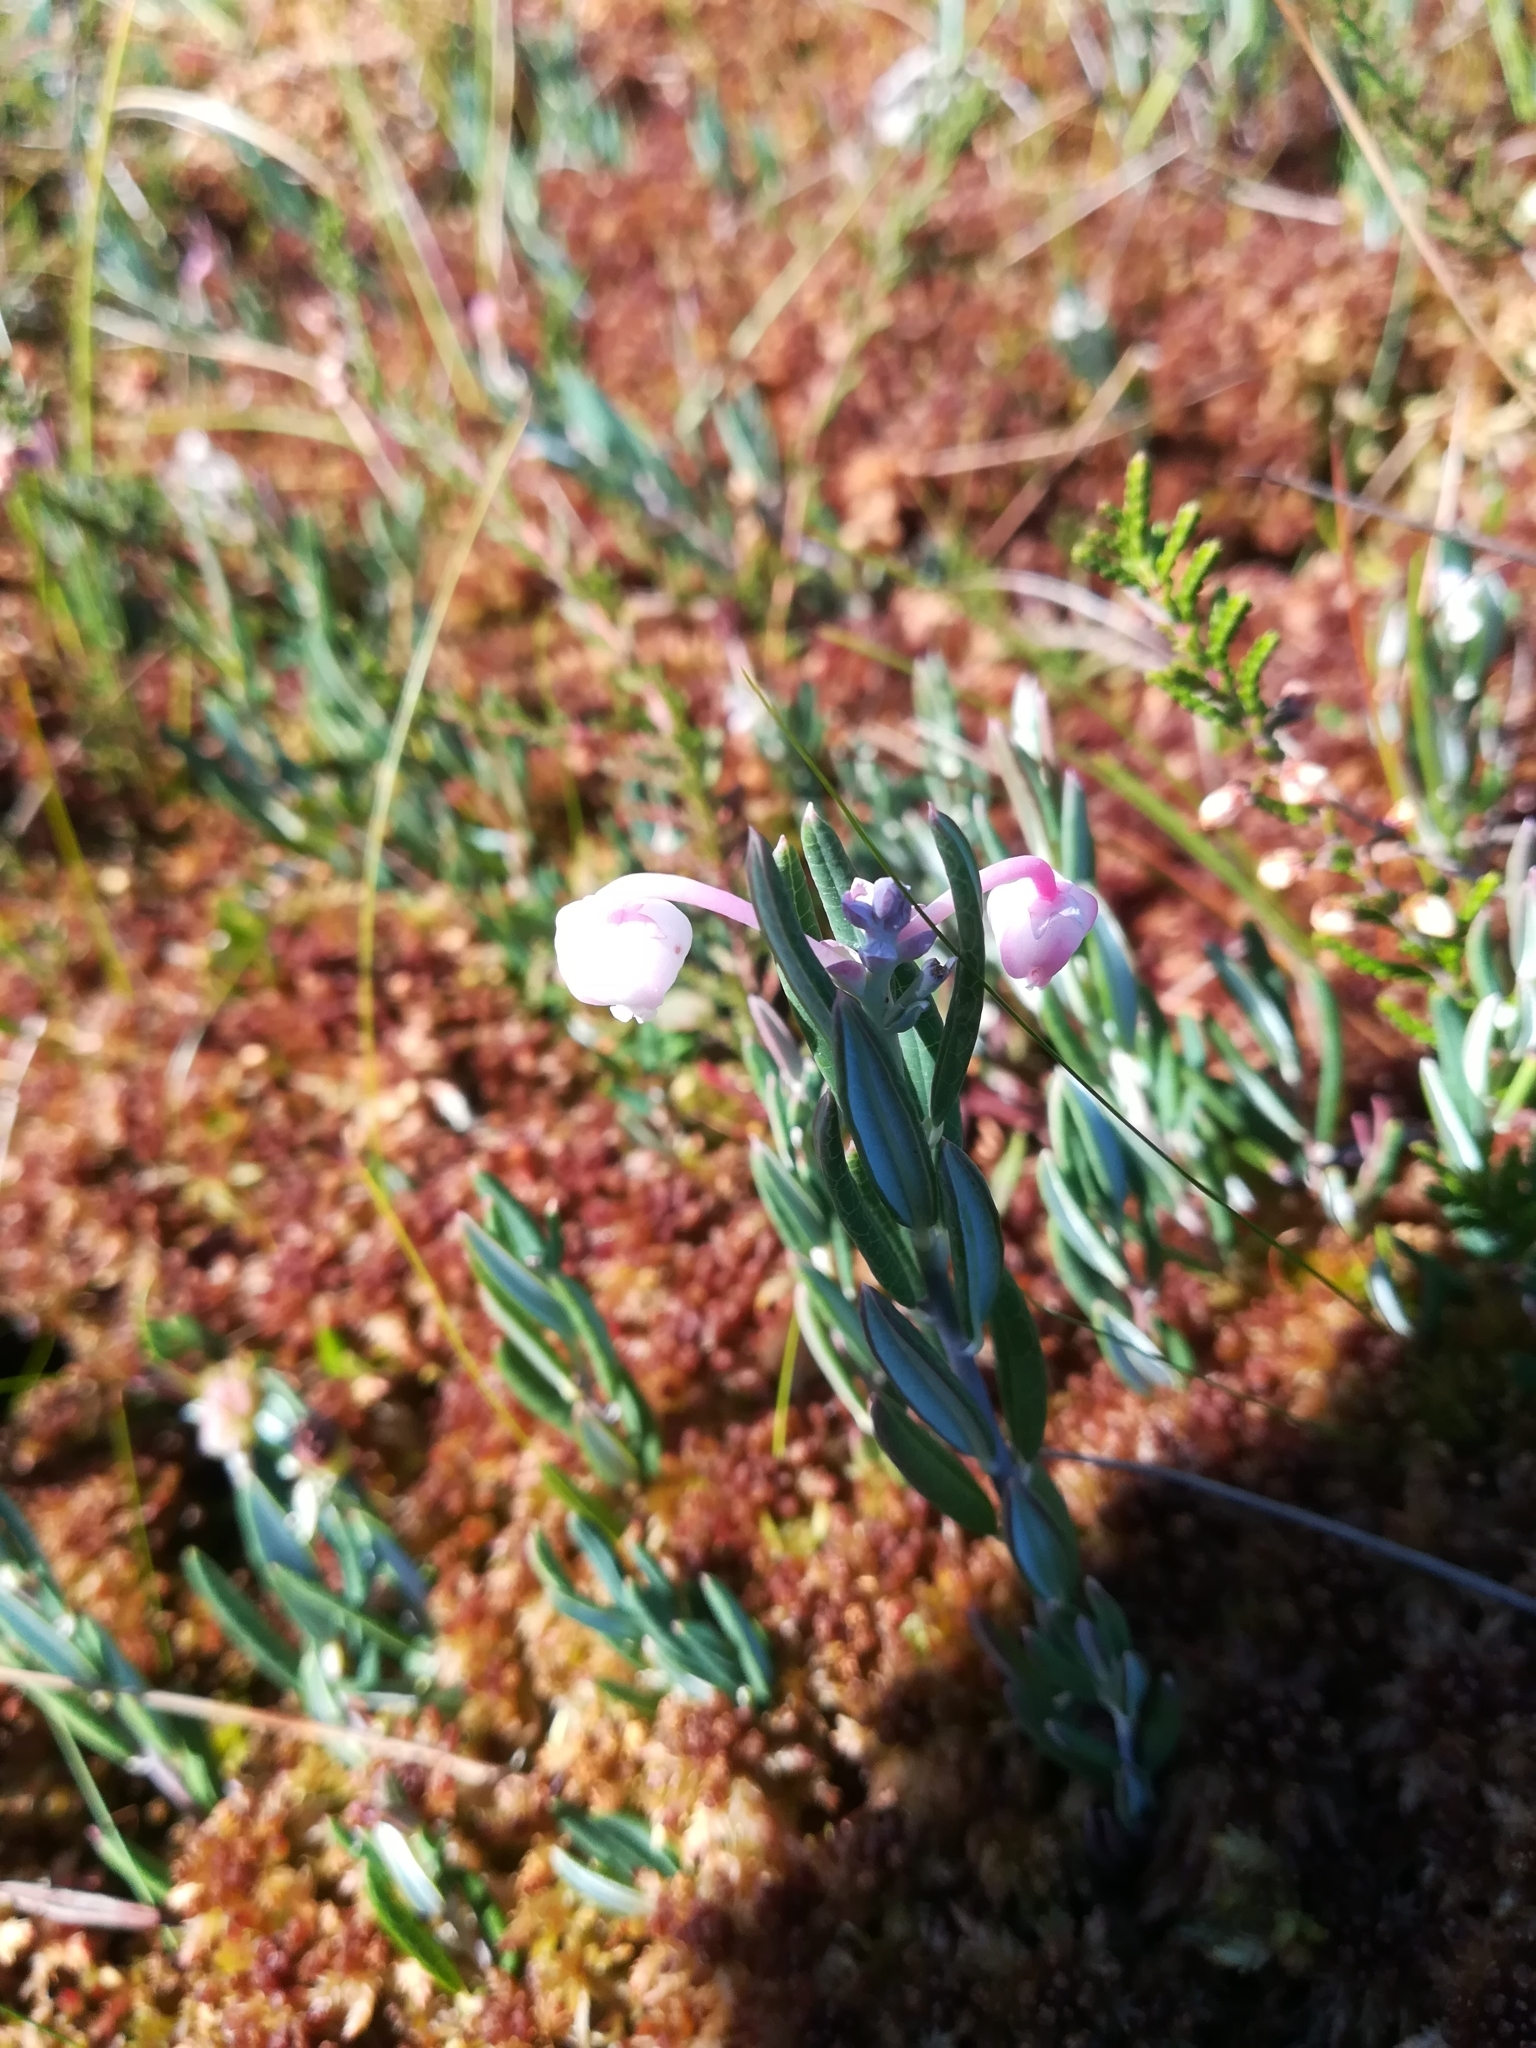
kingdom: Plantae
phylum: Tracheophyta
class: Magnoliopsida
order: Ericales
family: Ericaceae
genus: Andromeda
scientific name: Andromeda polifolia
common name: Bog-rosemary
